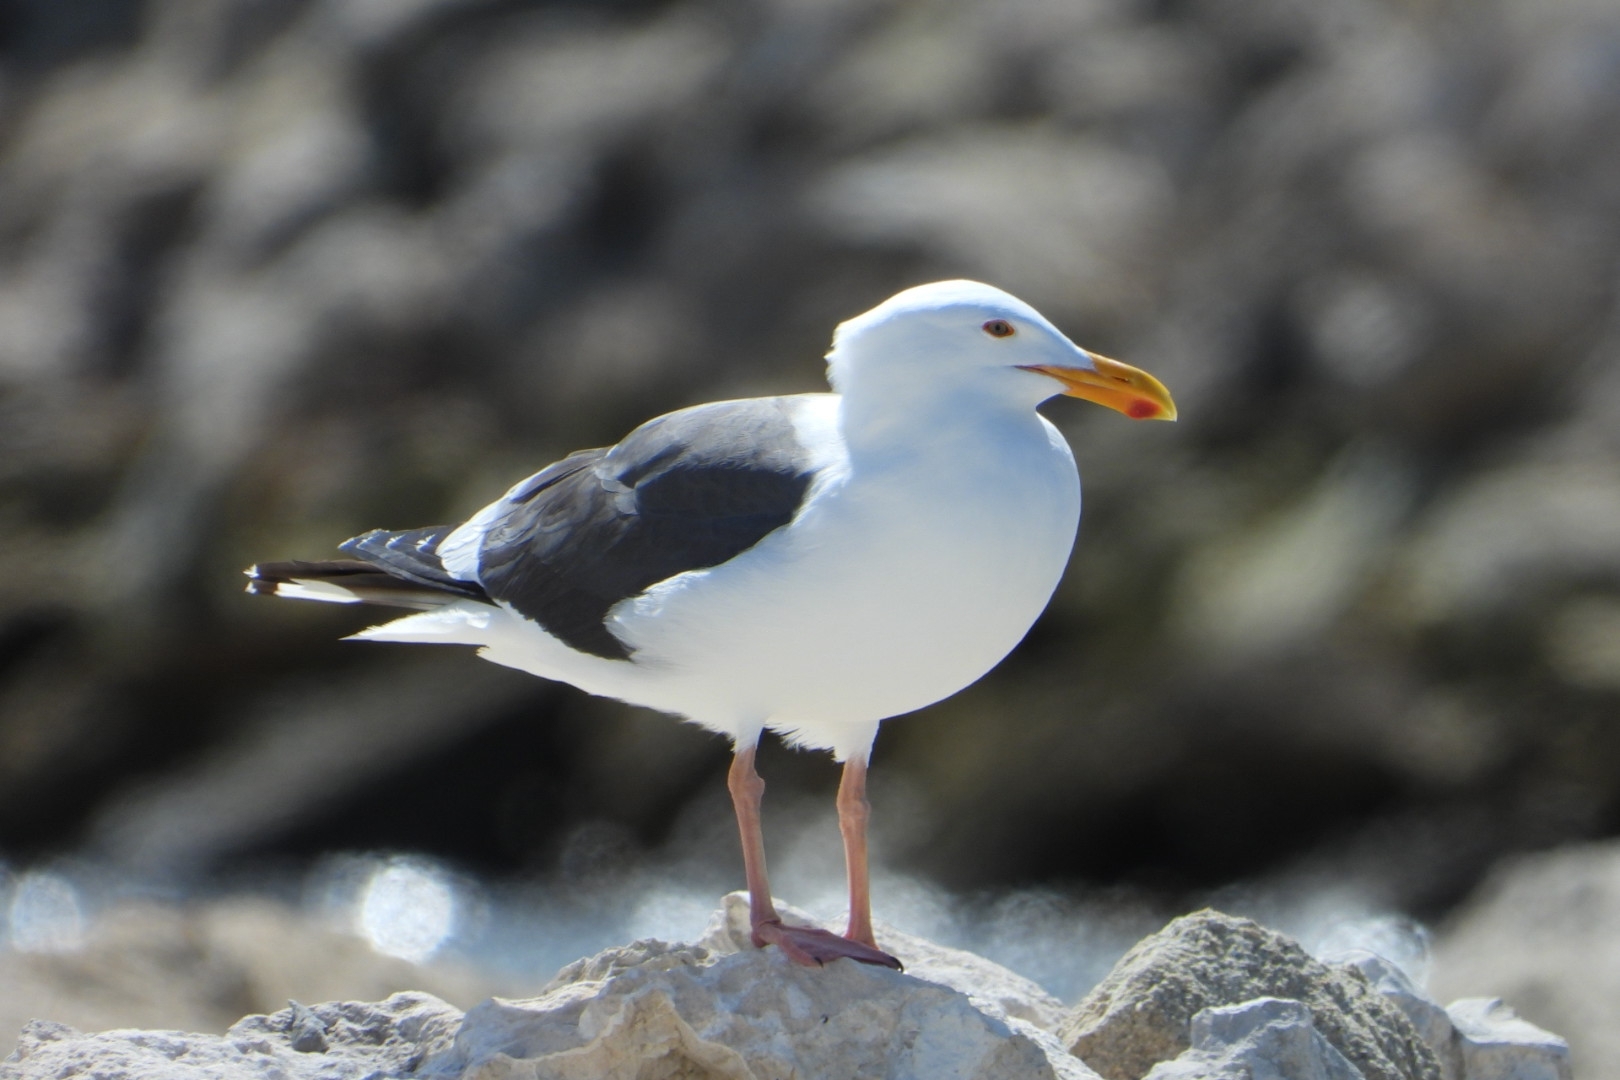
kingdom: Animalia
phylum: Chordata
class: Aves
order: Charadriiformes
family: Laridae
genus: Larus
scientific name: Larus occidentalis
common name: Western gull
